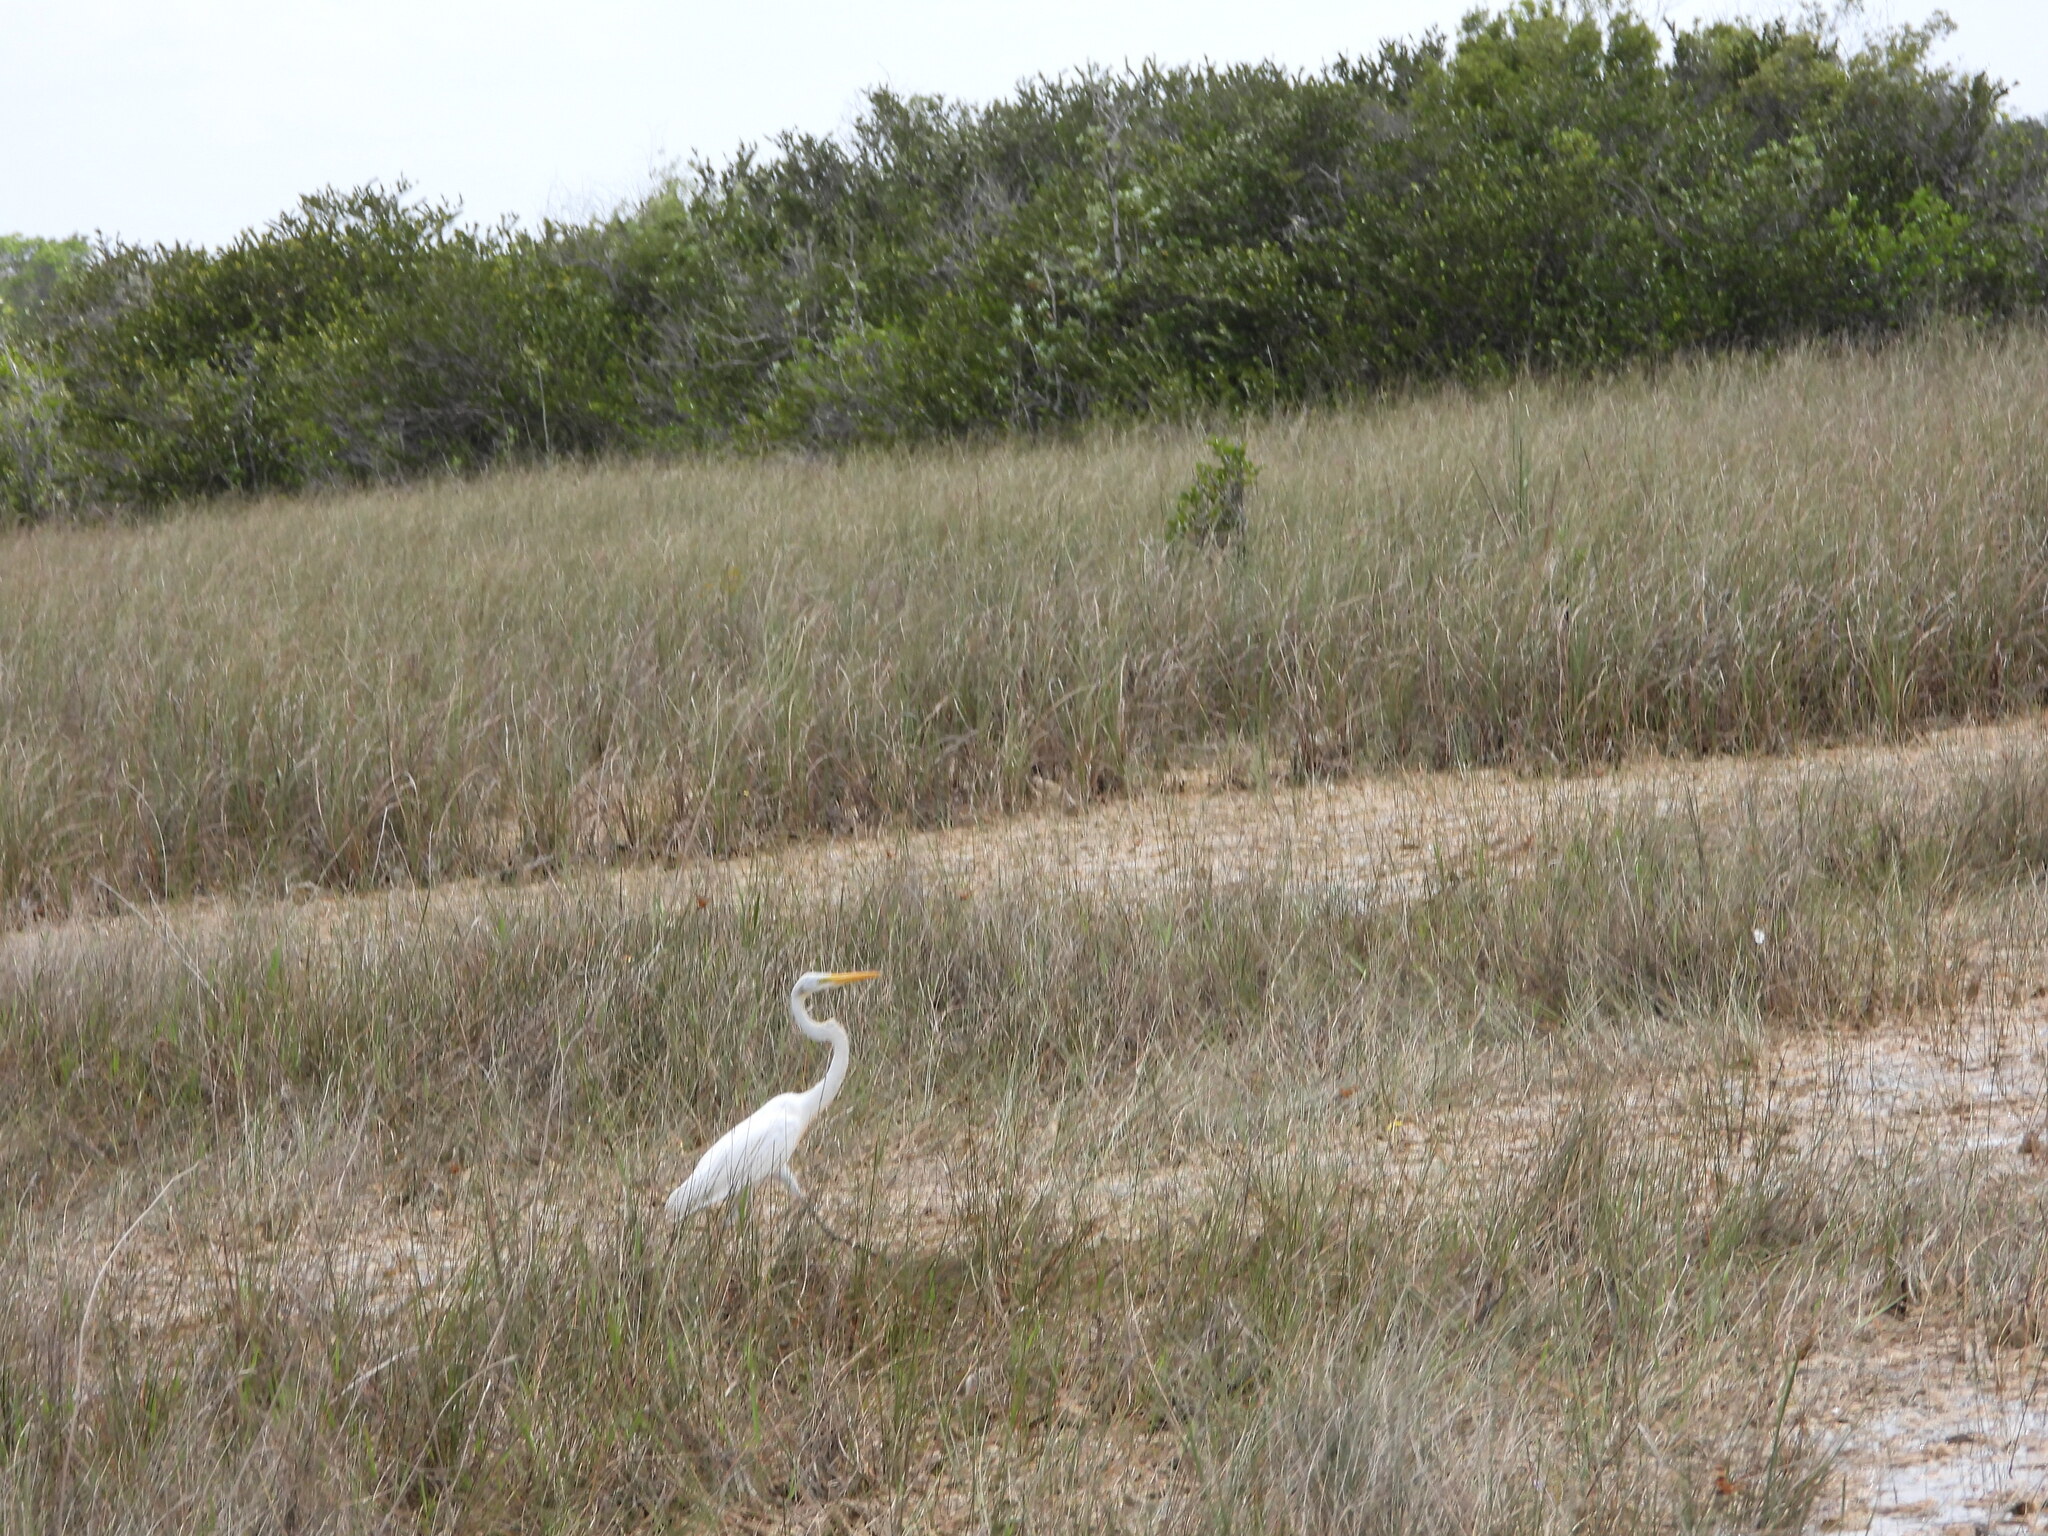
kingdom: Animalia
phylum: Chordata
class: Aves
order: Pelecaniformes
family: Ardeidae
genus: Ardea
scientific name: Ardea alba
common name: Great egret
